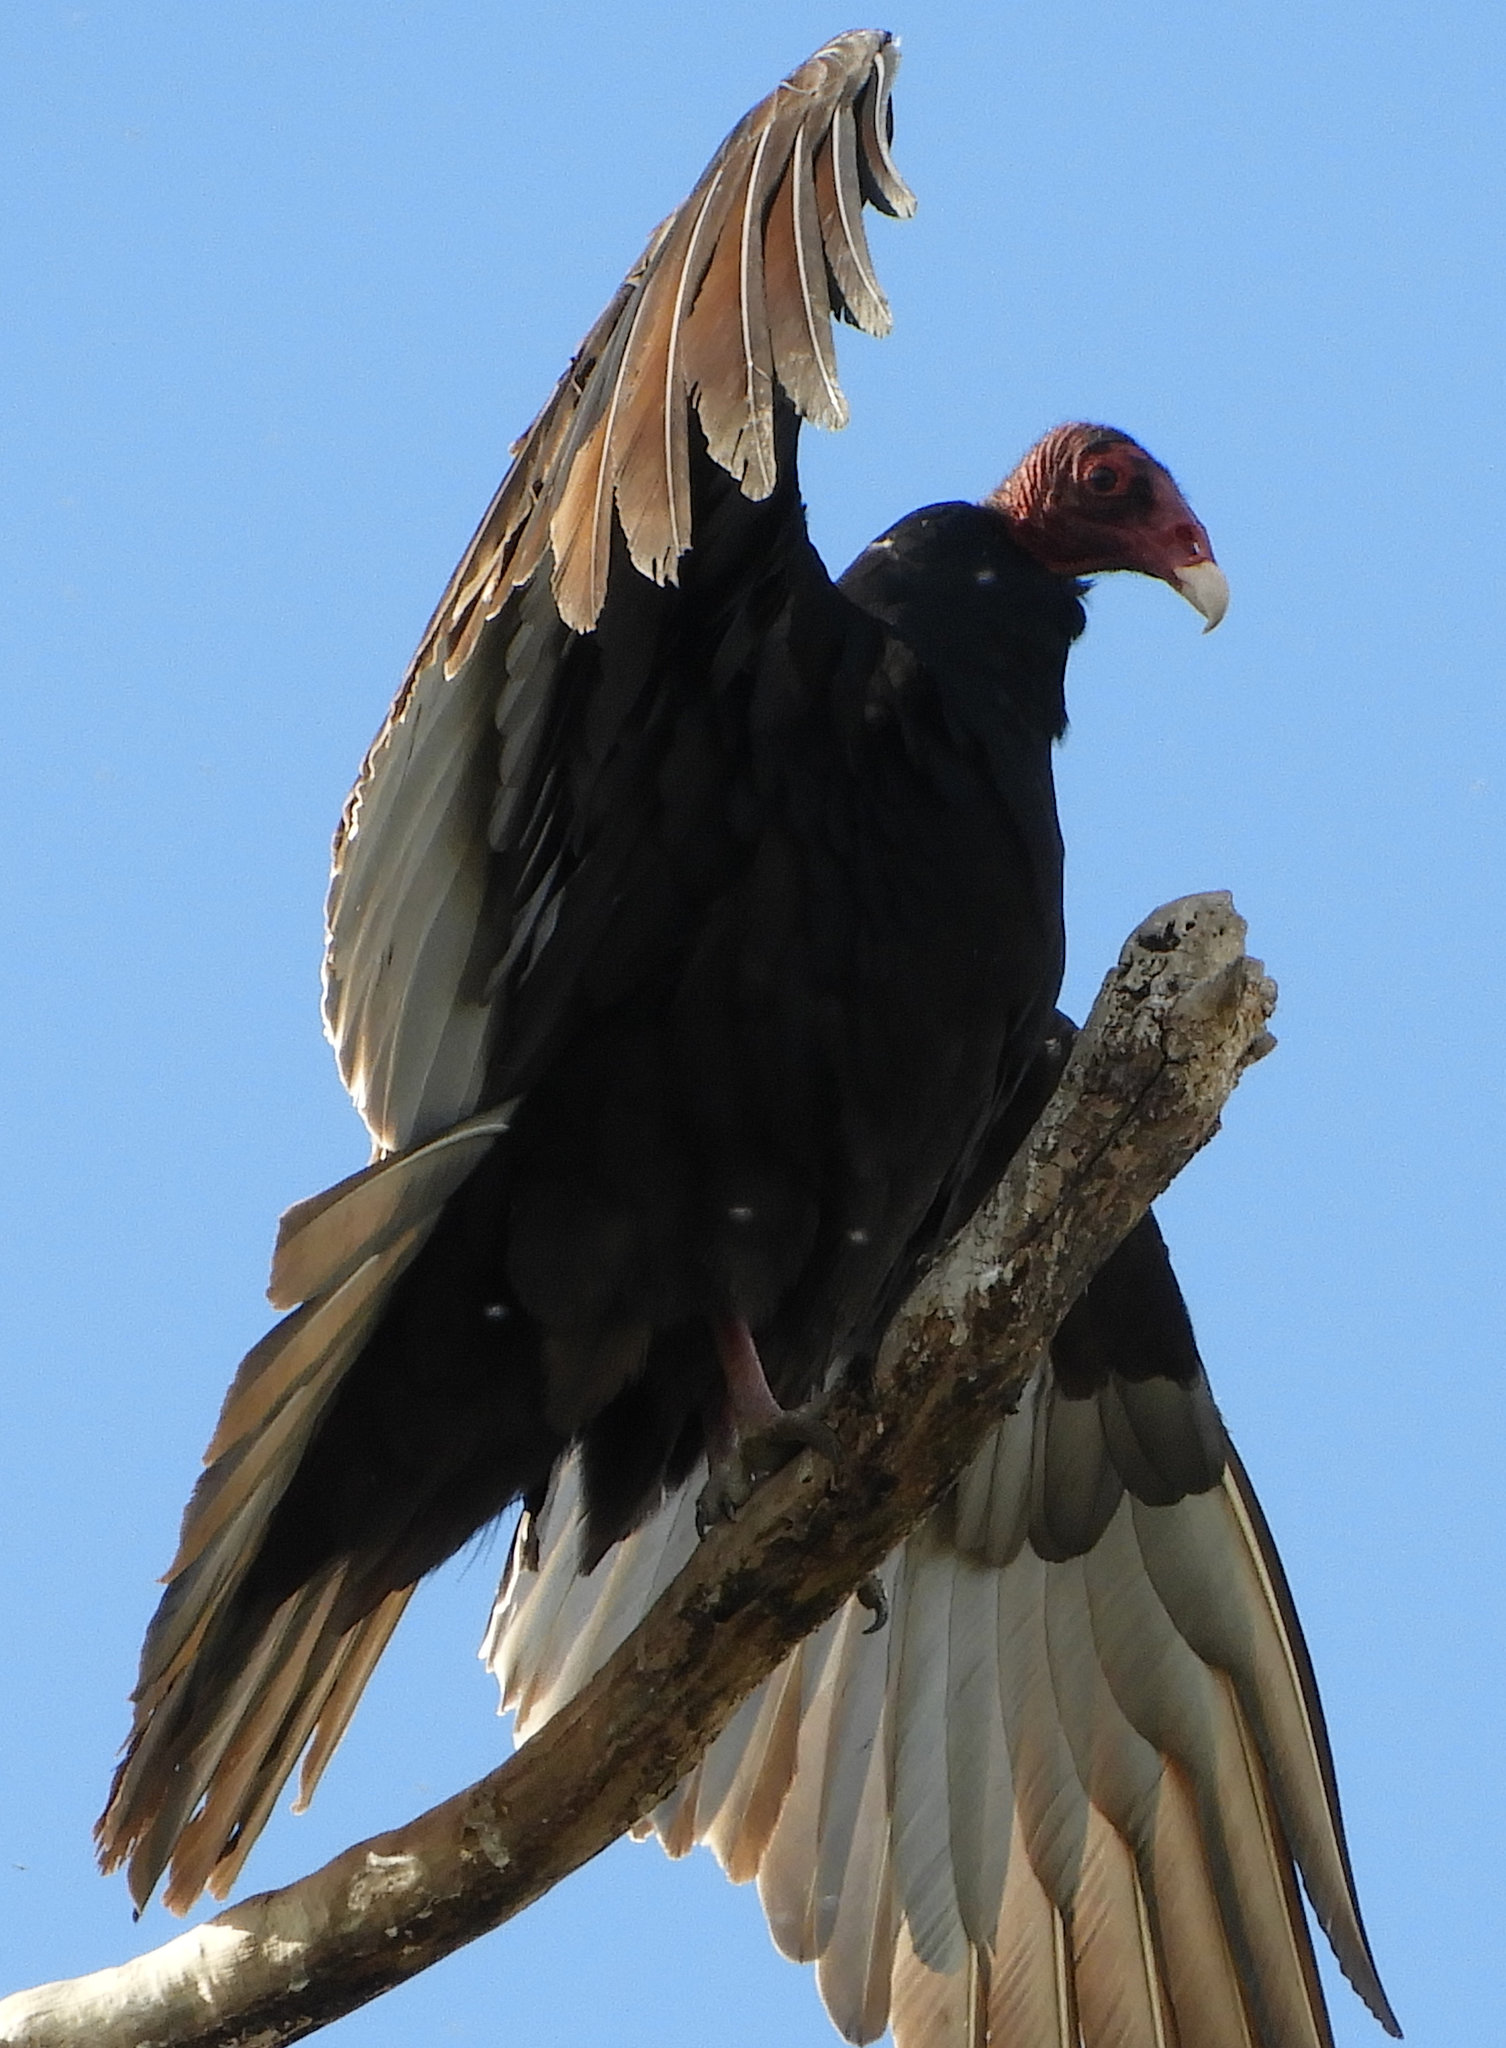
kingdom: Animalia
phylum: Chordata
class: Aves
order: Accipitriformes
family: Cathartidae
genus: Cathartes
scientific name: Cathartes aura
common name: Turkey vulture
